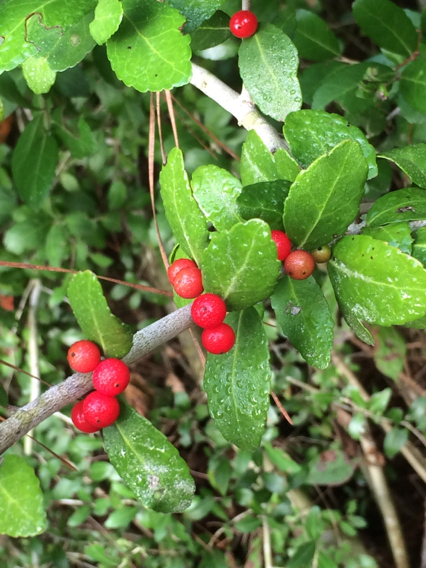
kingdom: Plantae
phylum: Tracheophyta
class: Magnoliopsida
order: Aquifoliales
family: Aquifoliaceae
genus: Ilex
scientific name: Ilex vomitoria
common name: Yaupon holly
